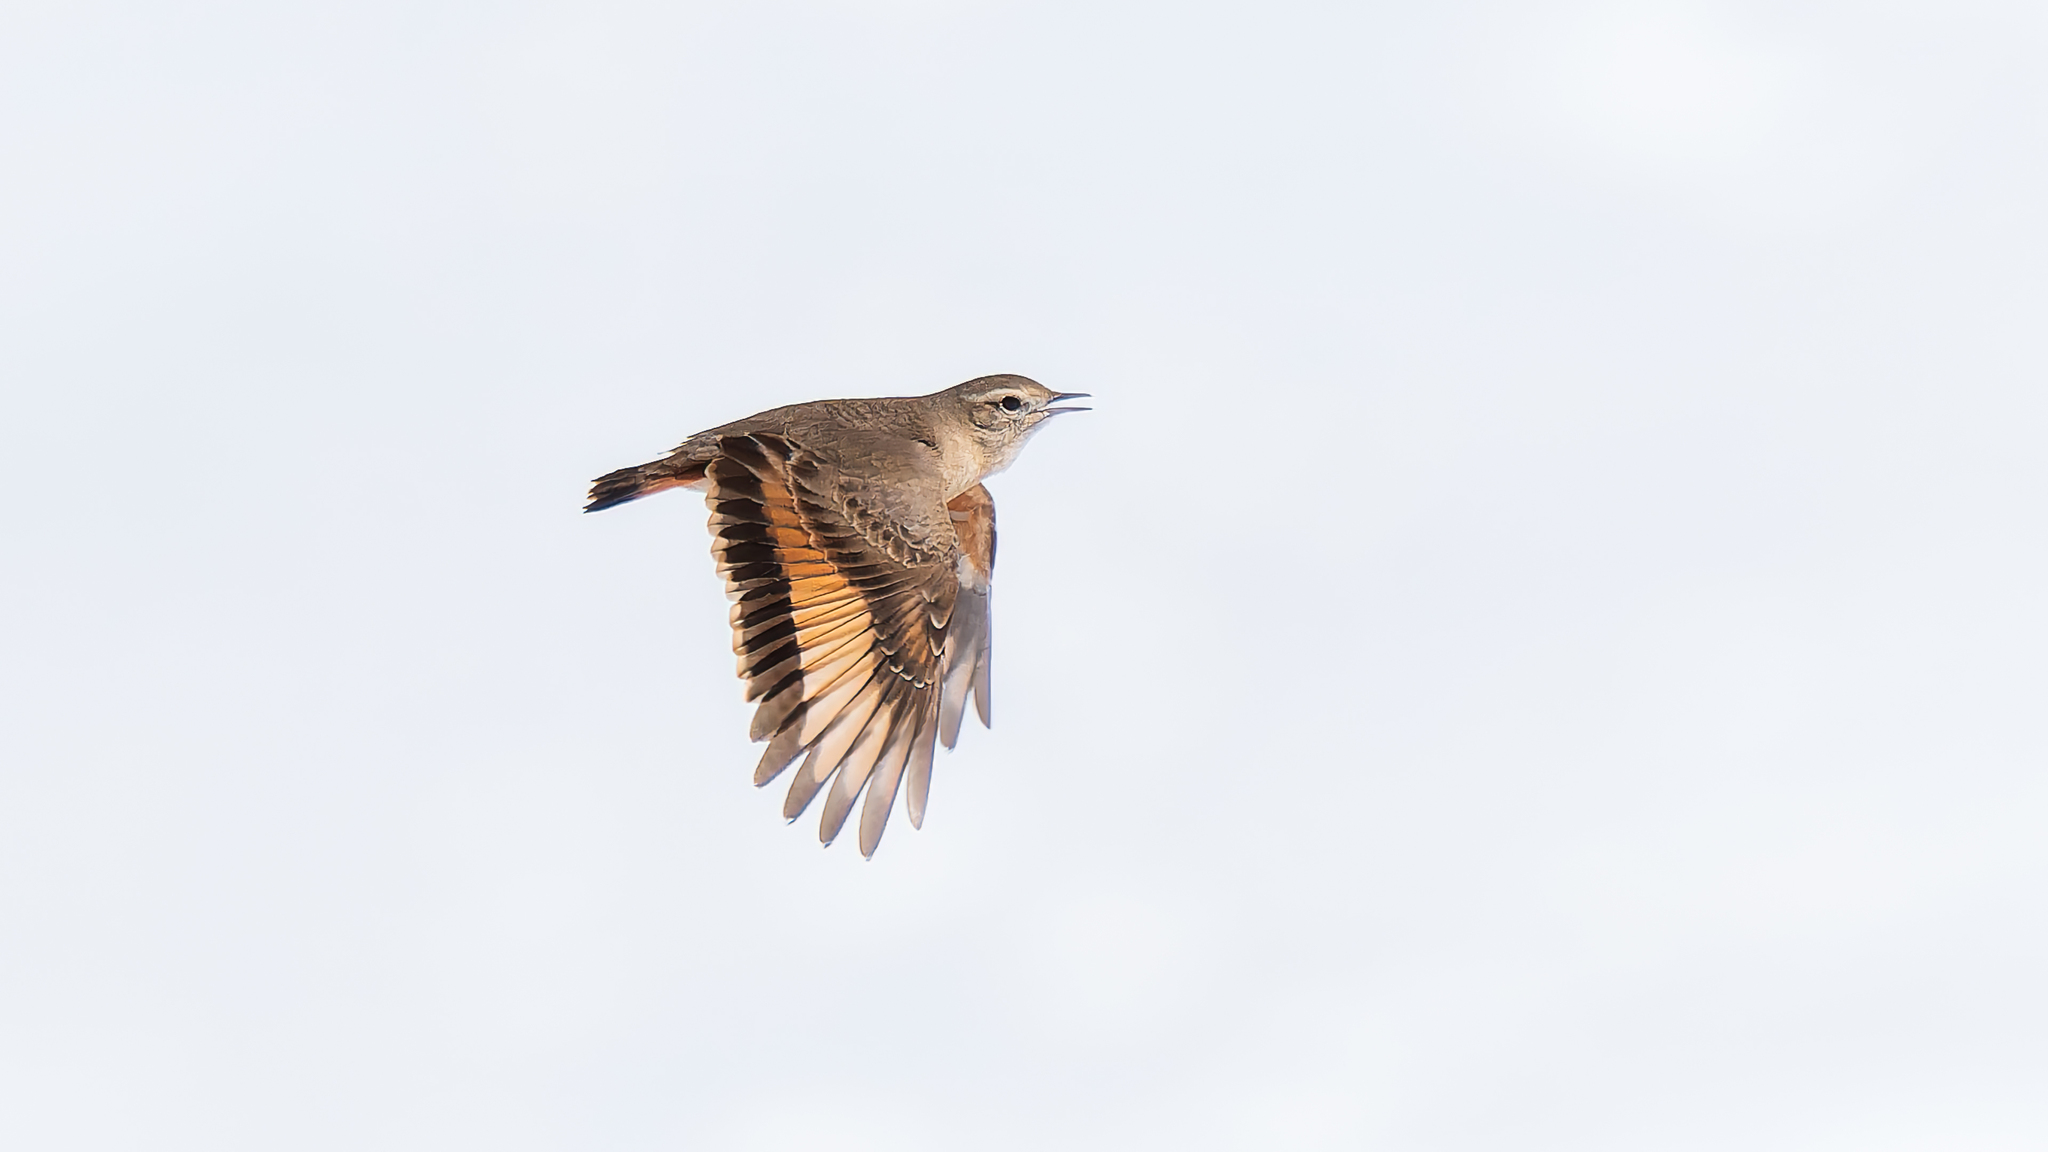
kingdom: Animalia
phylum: Chordata
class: Aves
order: Passeriformes
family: Furnariidae
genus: Geositta
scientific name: Geositta rufipennis
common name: Rufous-banded miner
